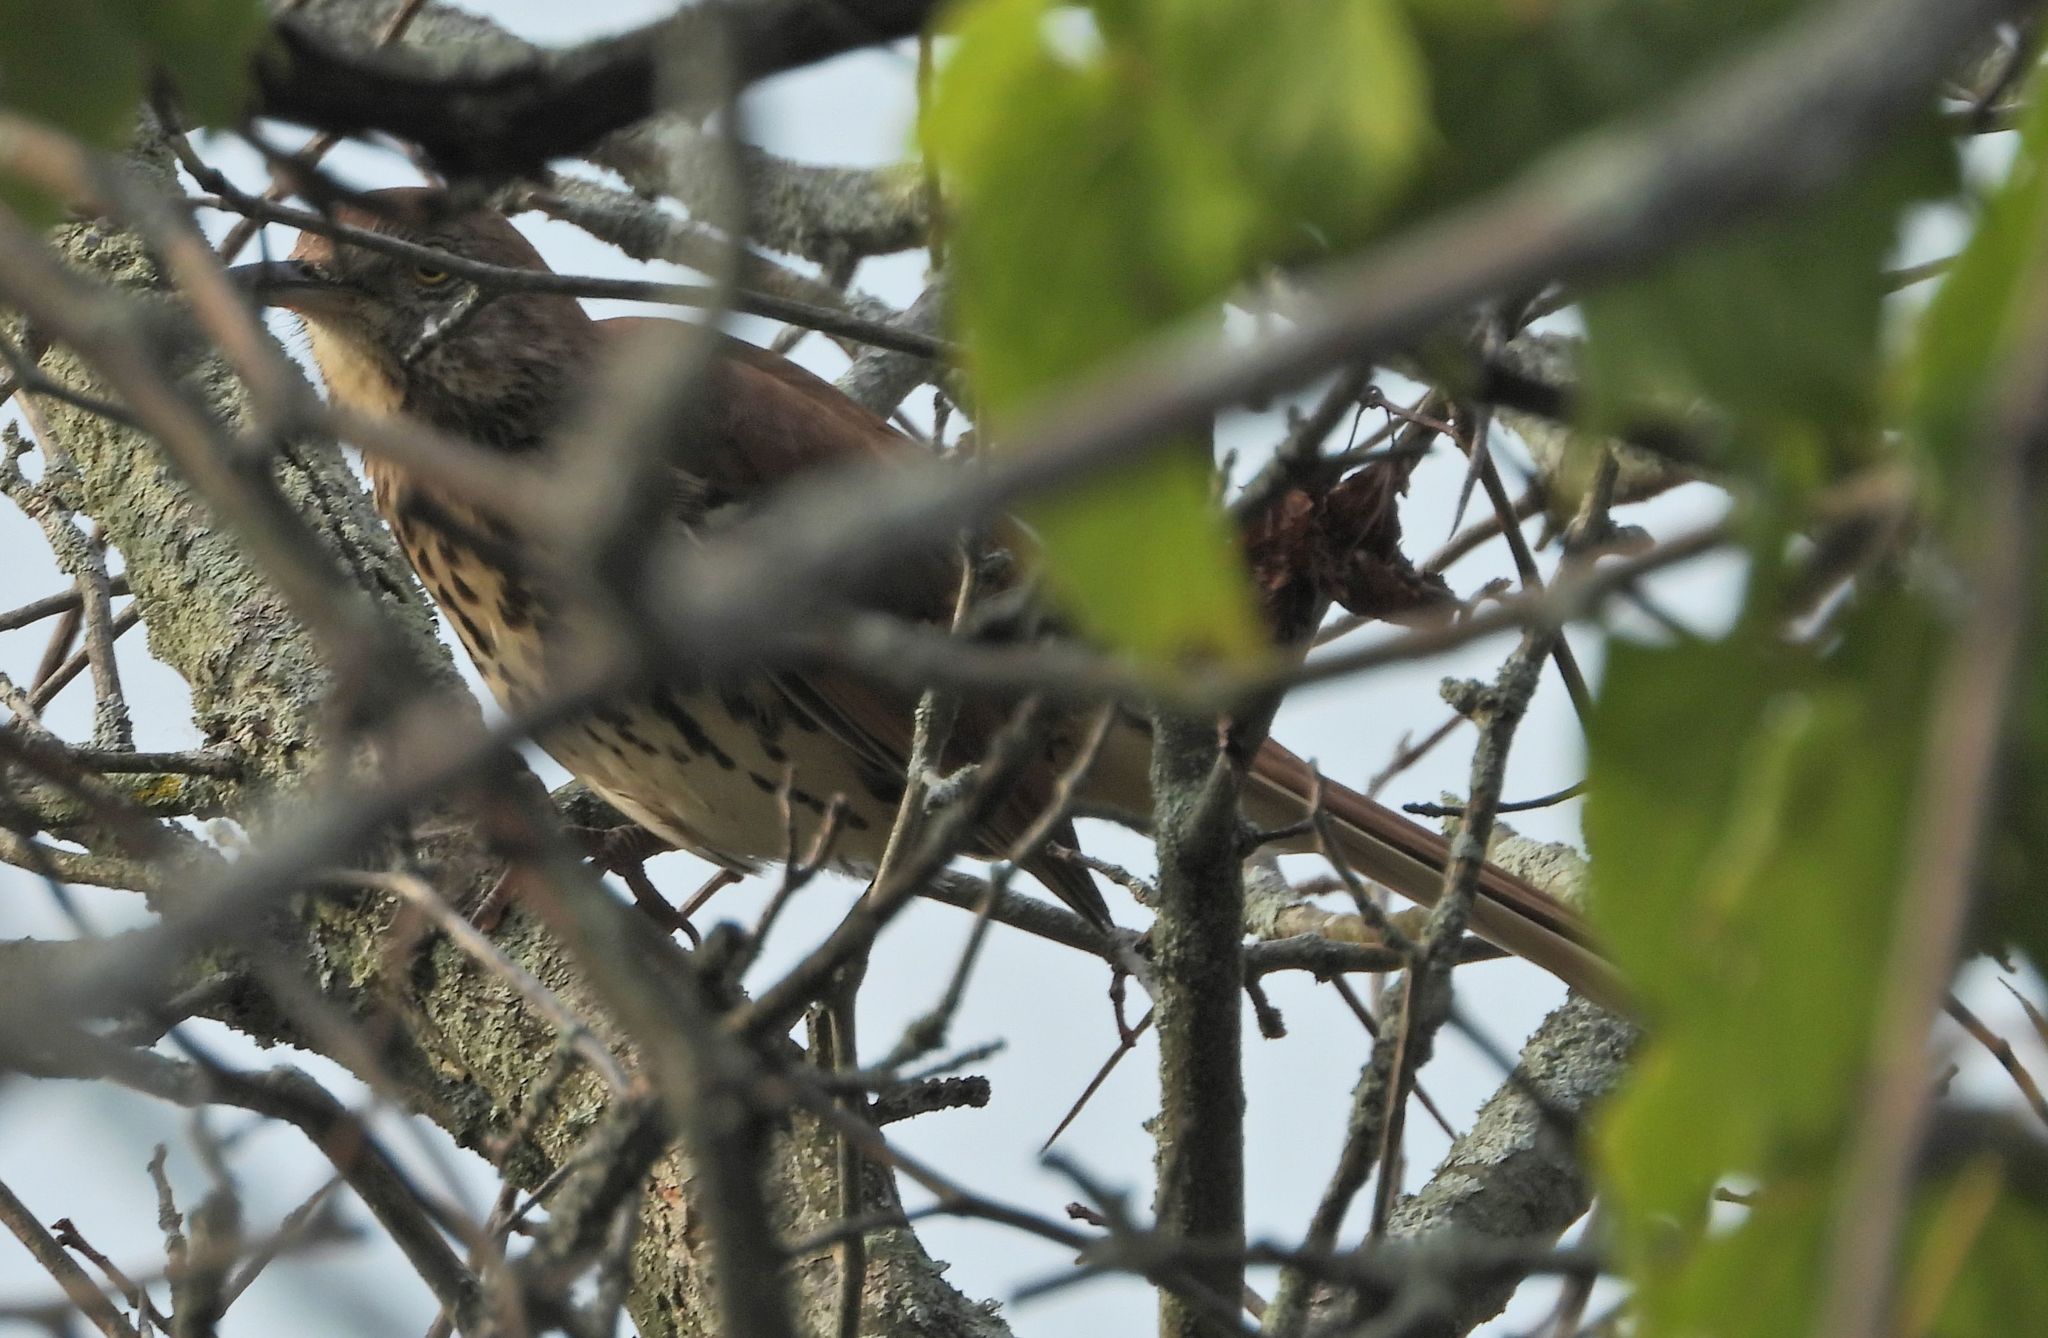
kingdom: Animalia
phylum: Chordata
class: Aves
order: Passeriformes
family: Mimidae
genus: Toxostoma
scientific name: Toxostoma rufum
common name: Brown thrasher
